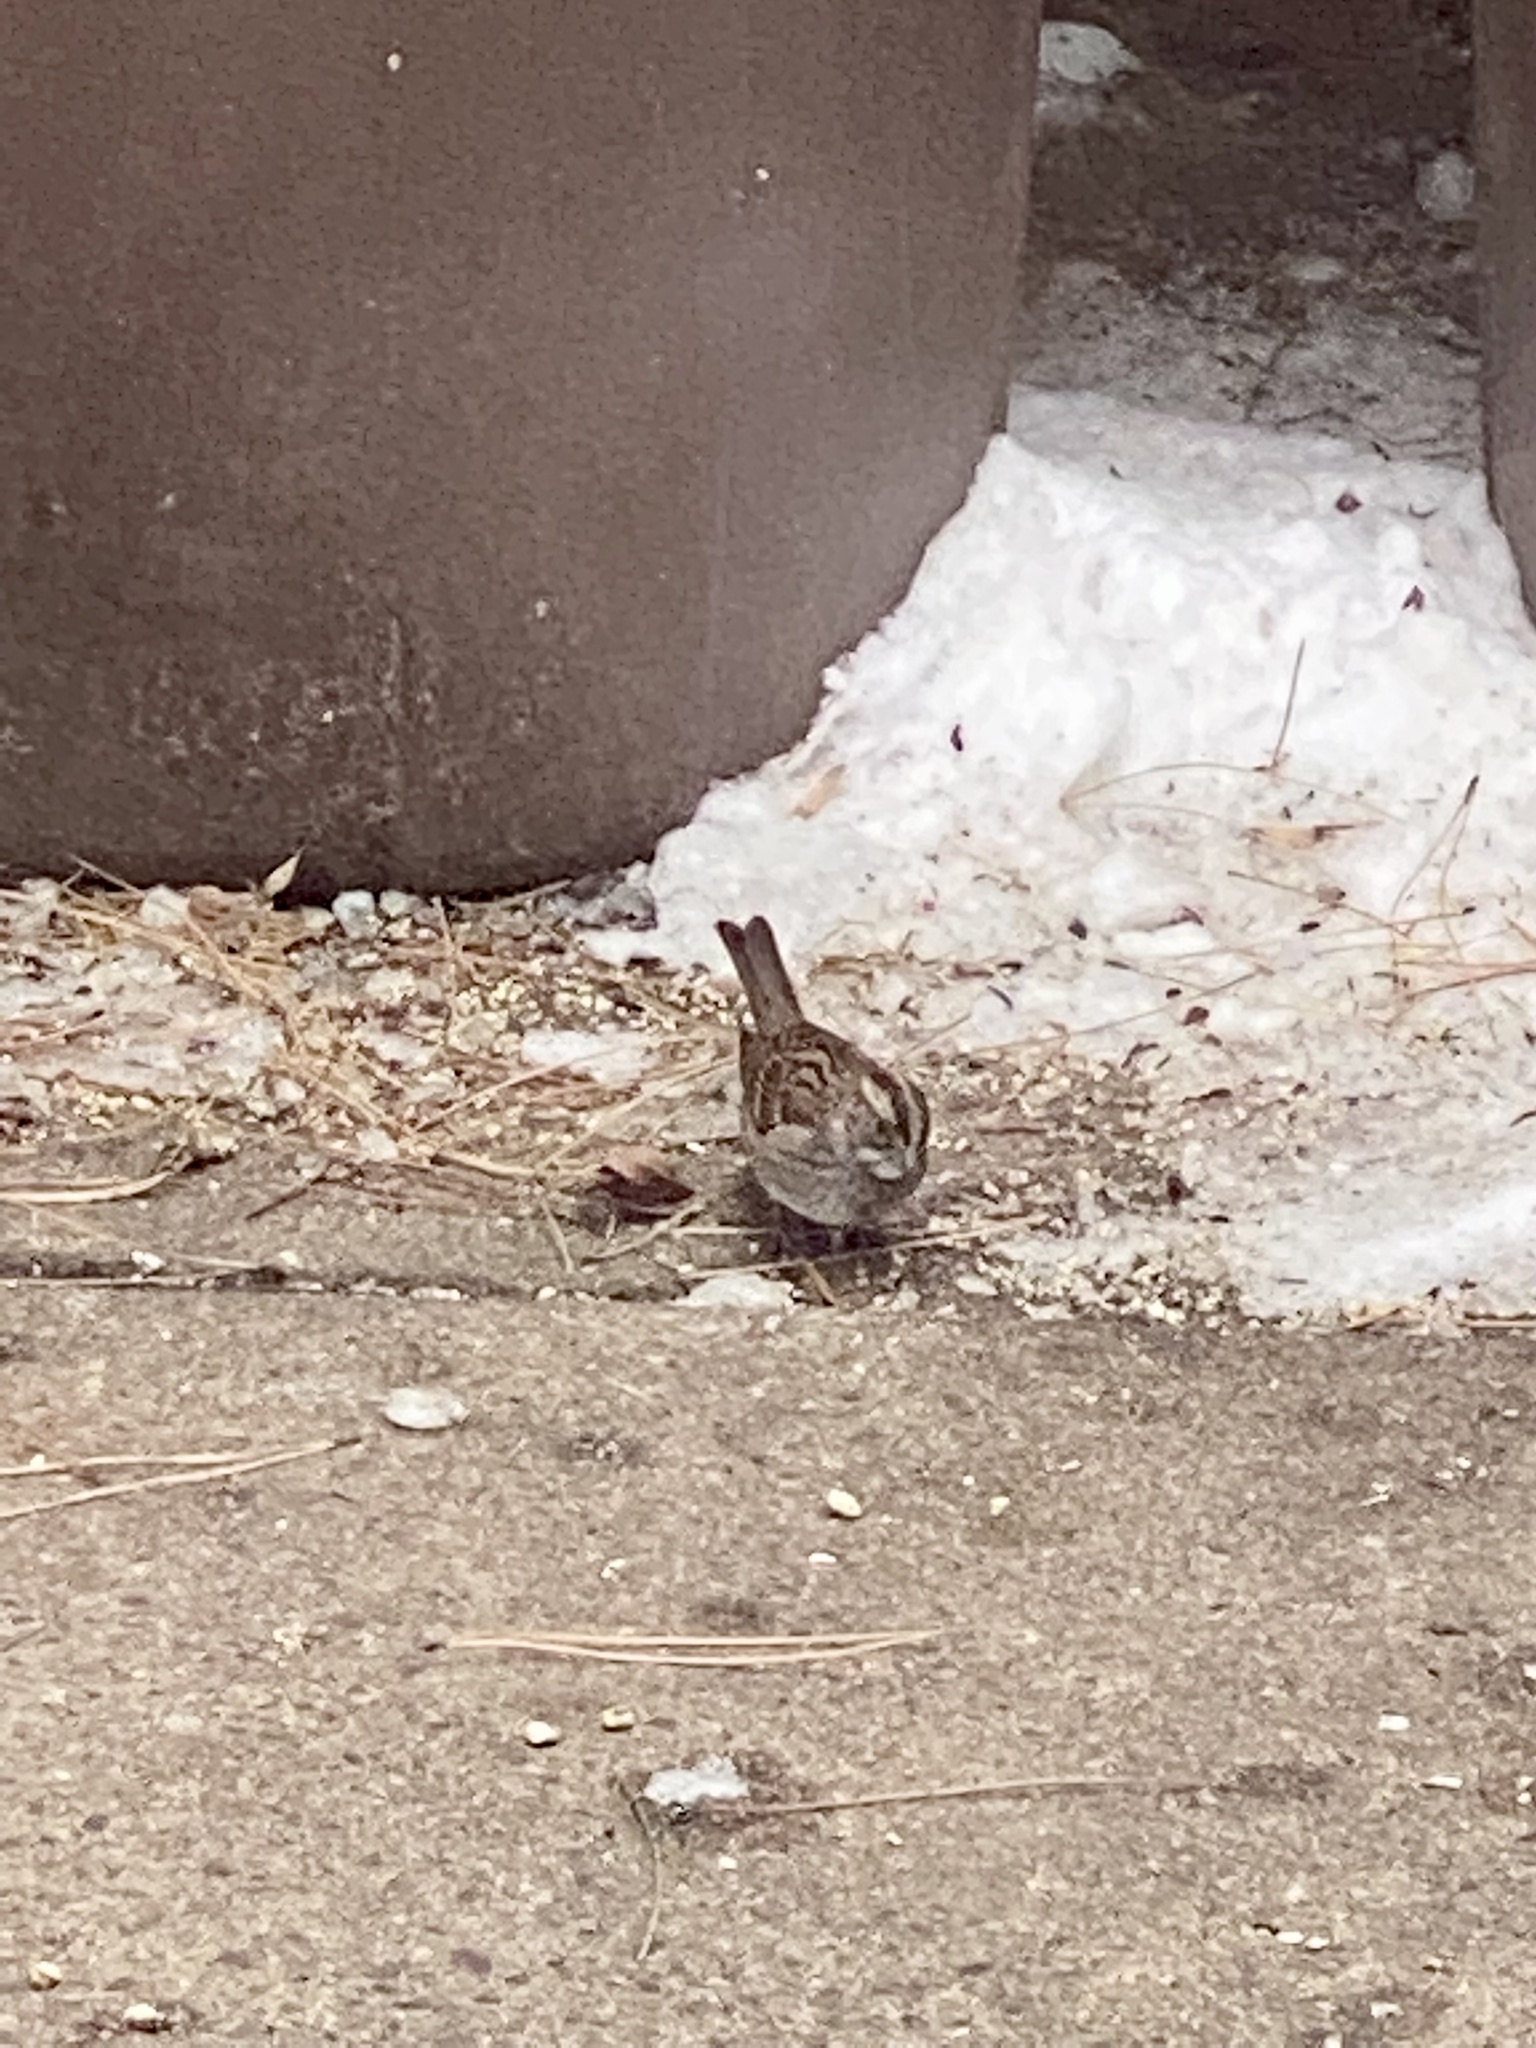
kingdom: Animalia
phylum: Chordata
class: Aves
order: Passeriformes
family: Passerellidae
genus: Zonotrichia
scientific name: Zonotrichia albicollis
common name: White-throated sparrow
